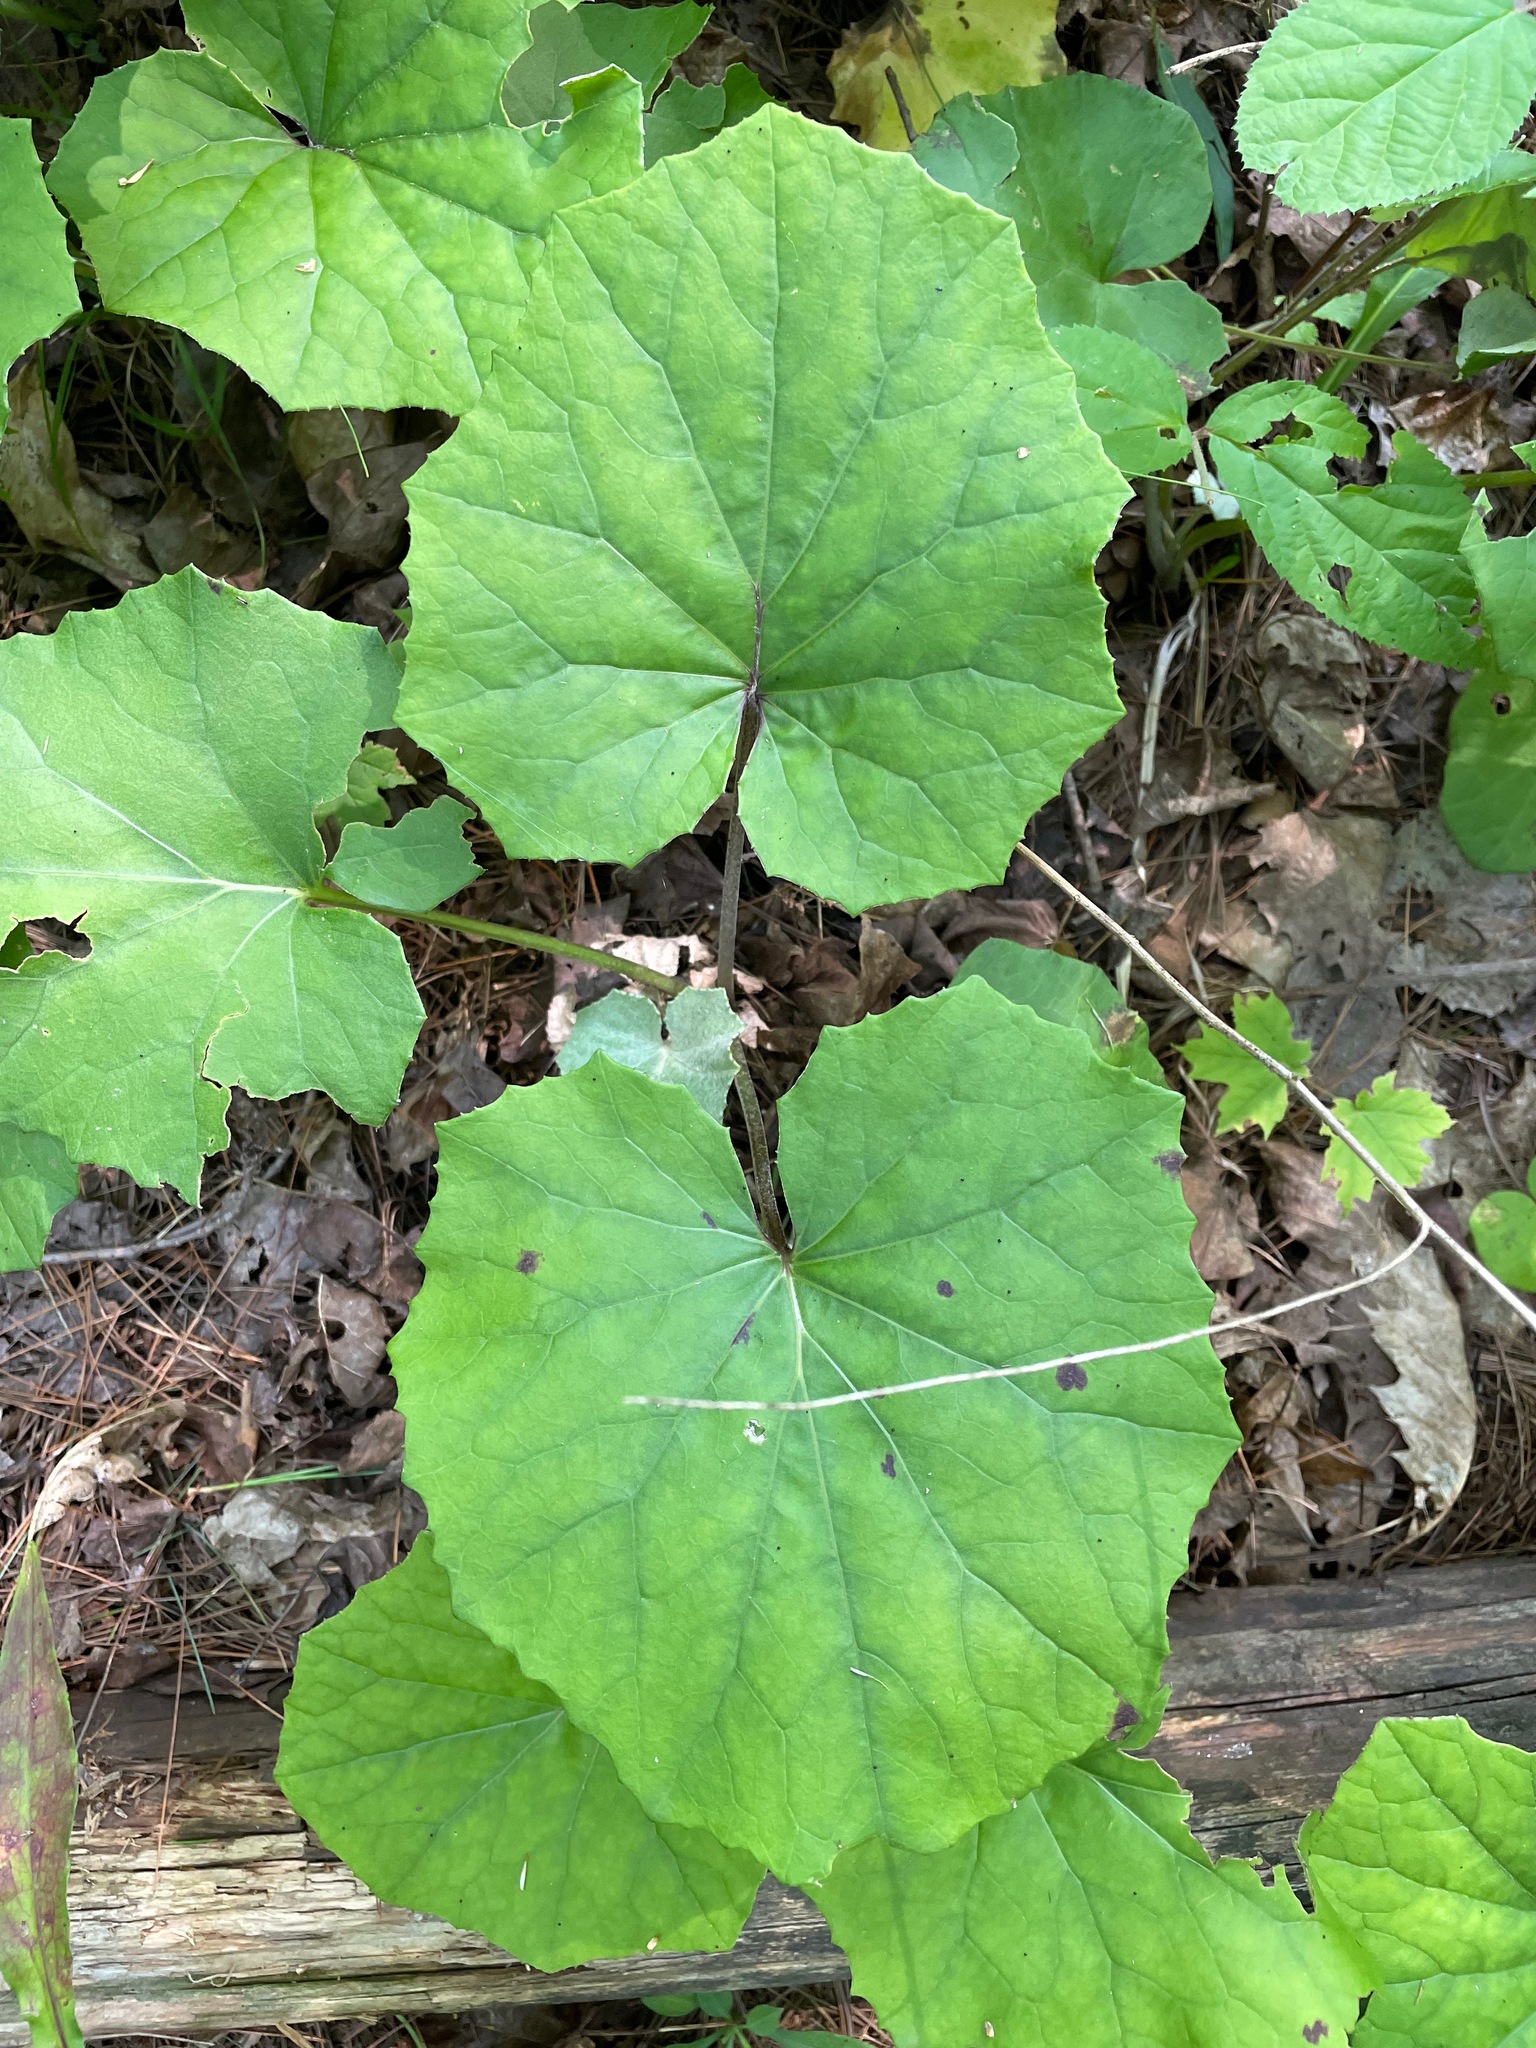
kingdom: Plantae
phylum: Tracheophyta
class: Magnoliopsida
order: Asterales
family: Asteraceae
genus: Tussilago
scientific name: Tussilago farfara
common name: Coltsfoot
